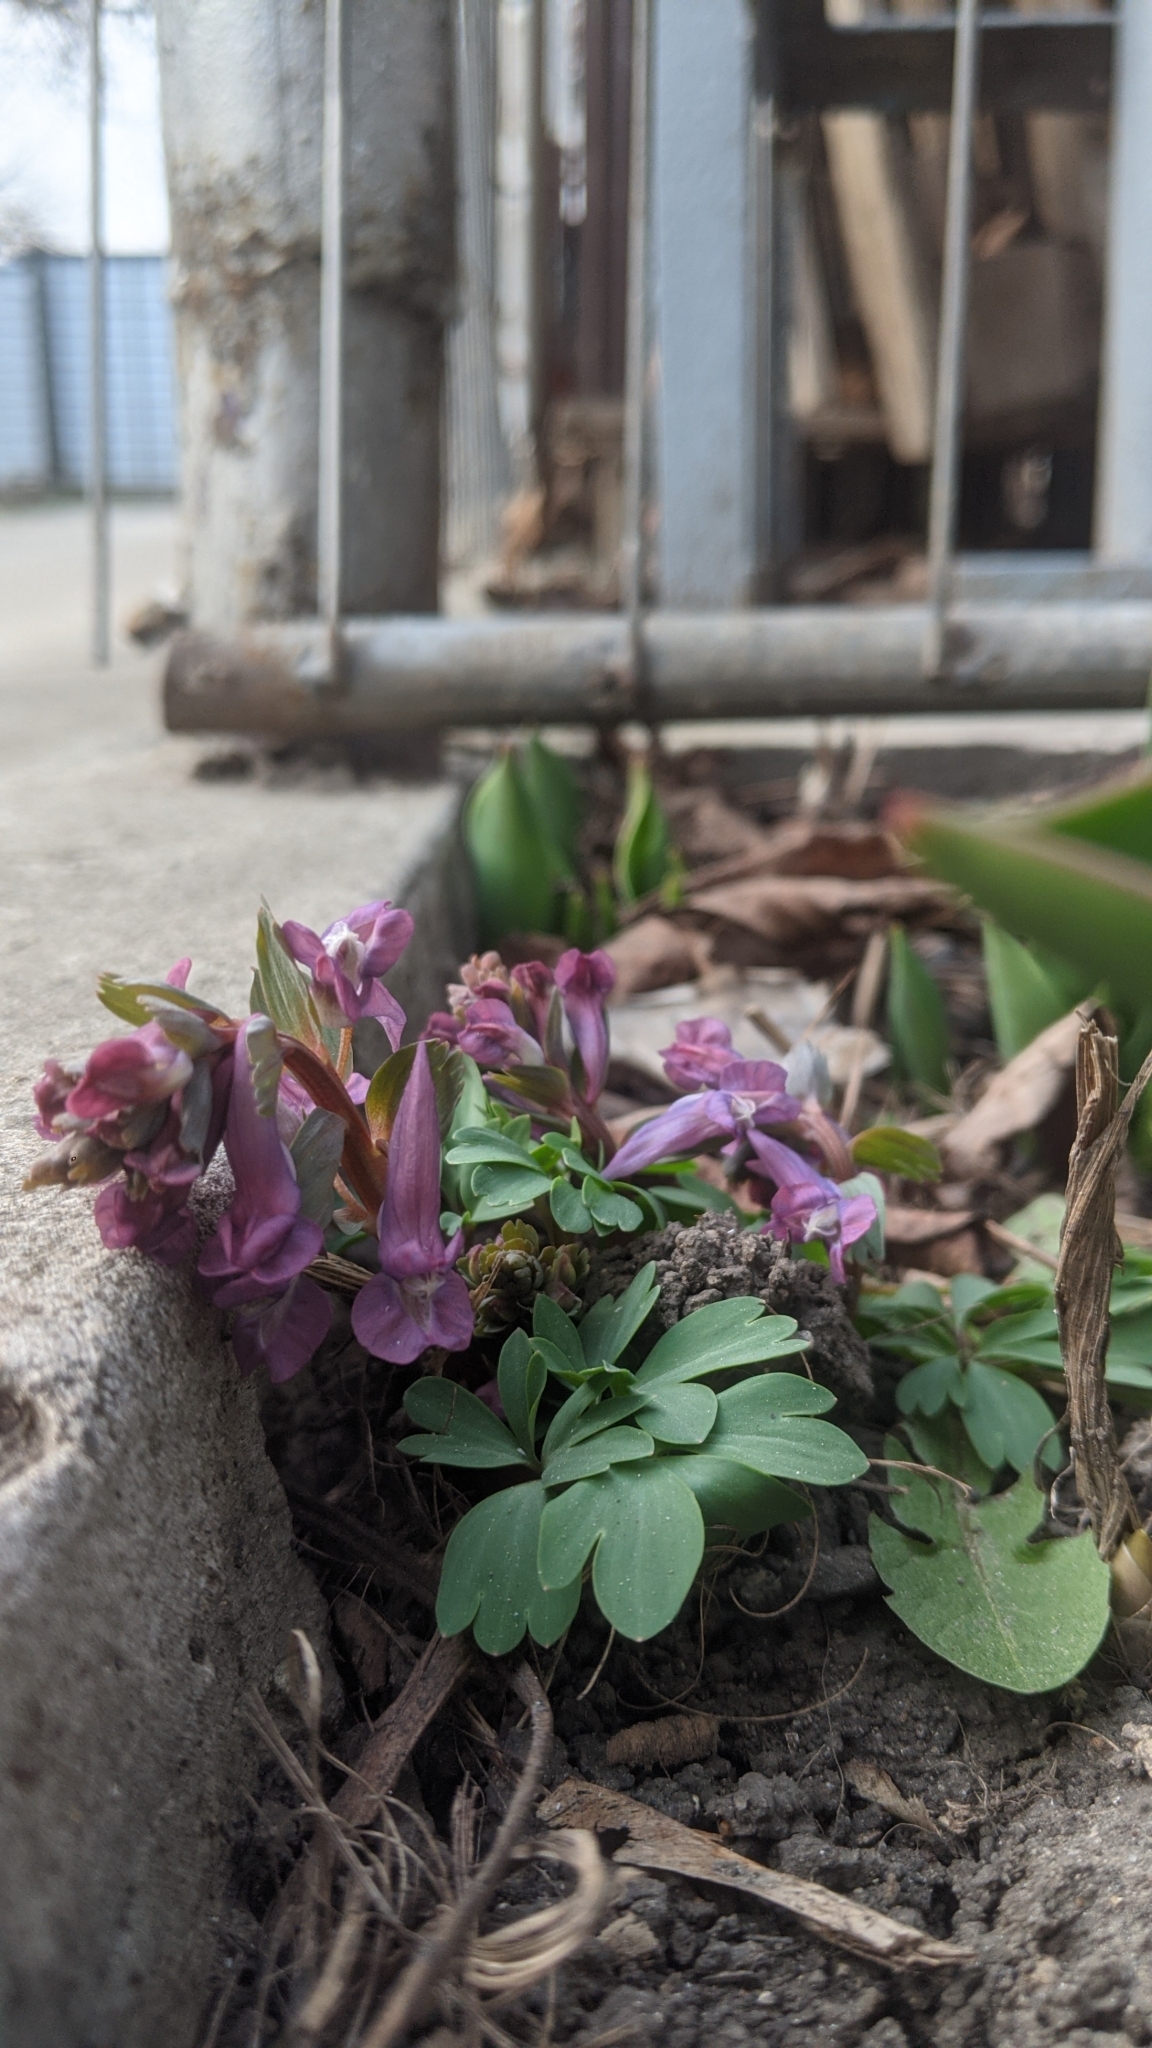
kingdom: Plantae
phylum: Tracheophyta
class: Magnoliopsida
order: Ranunculales
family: Papaveraceae
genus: Corydalis
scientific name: Corydalis solida
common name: Bird-in-a-bush
